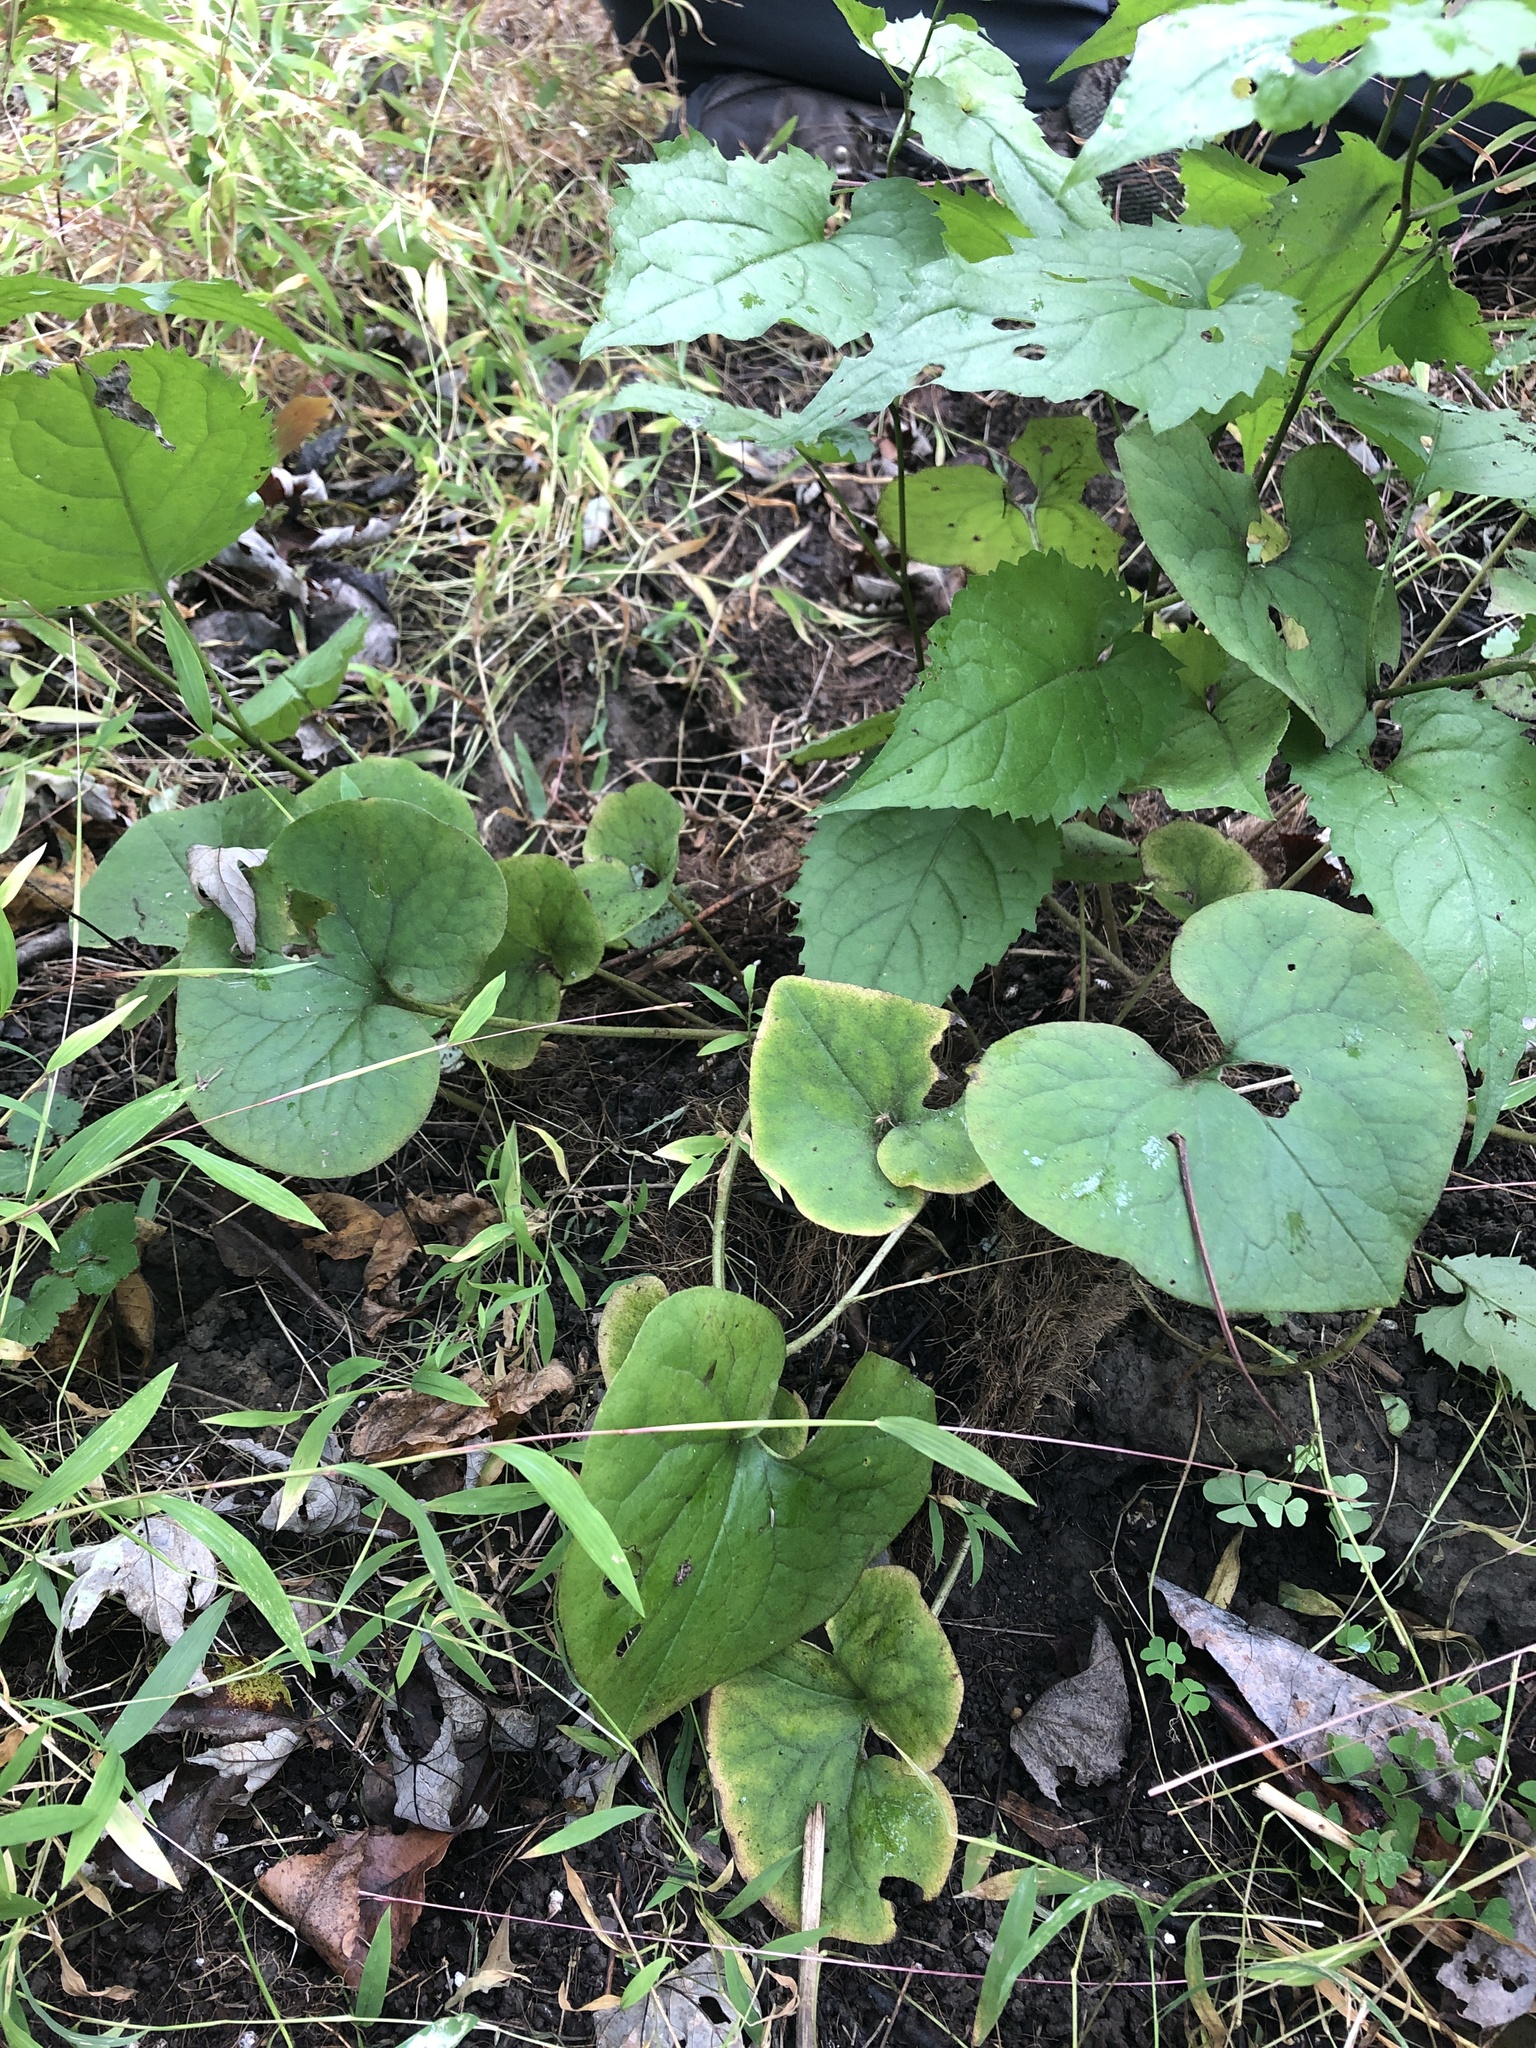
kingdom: Plantae
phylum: Tracheophyta
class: Magnoliopsida
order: Piperales
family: Aristolochiaceae
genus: Asarum
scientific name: Asarum canadense
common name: Wild ginger
